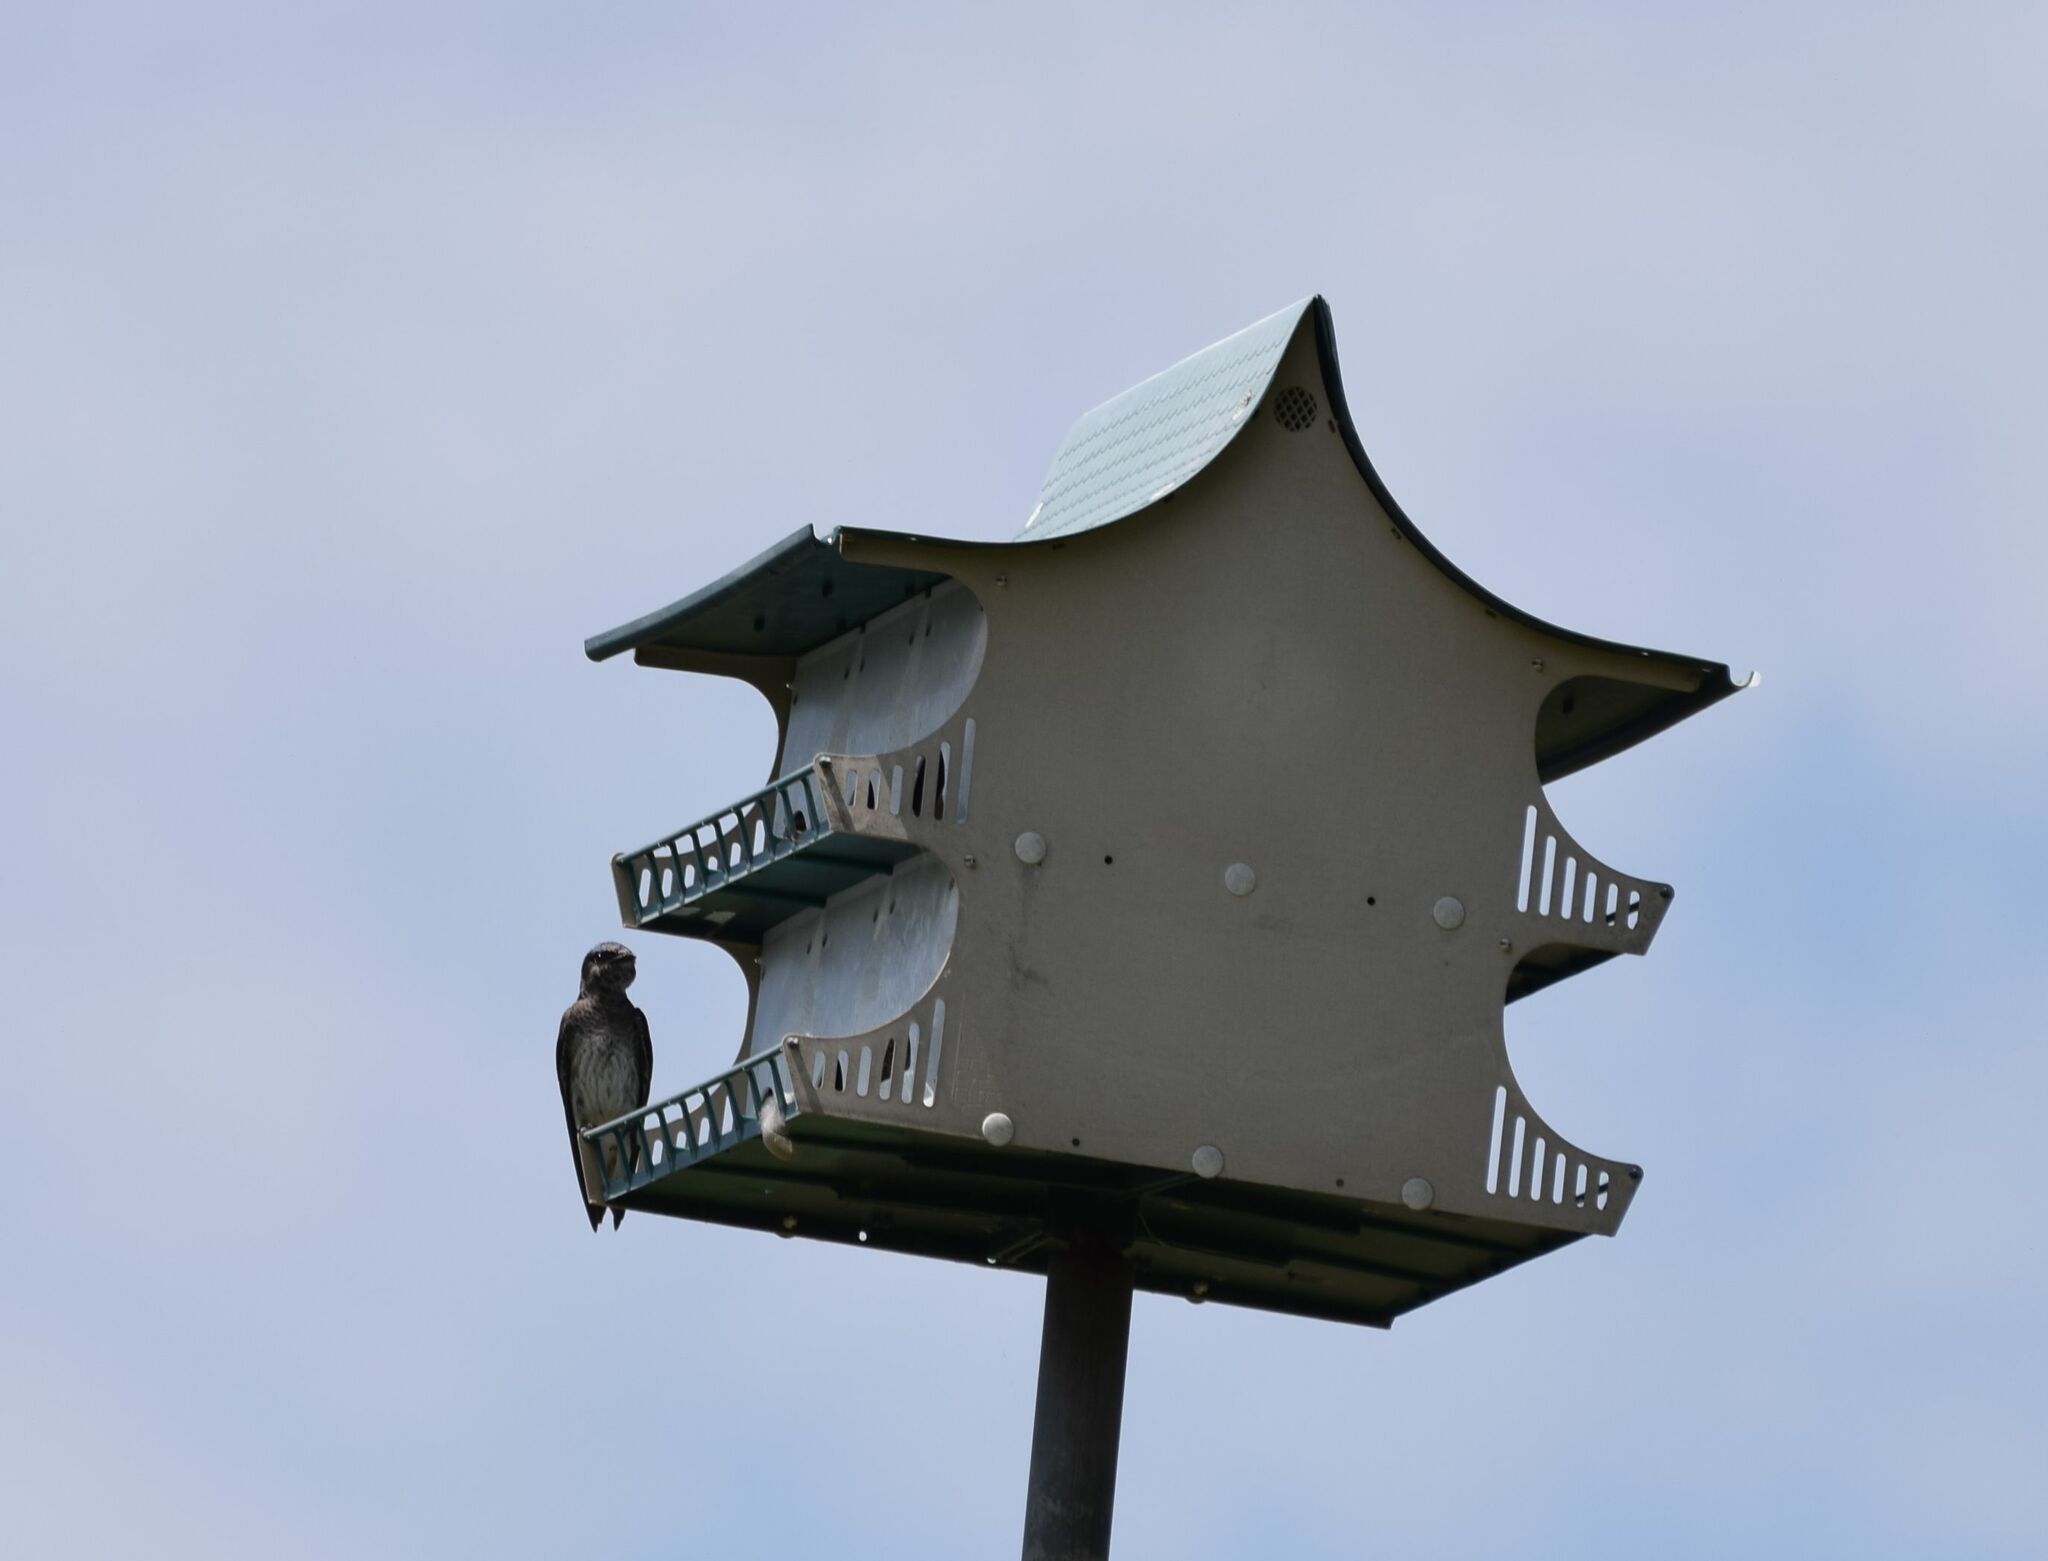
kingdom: Animalia
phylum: Chordata
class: Aves
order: Passeriformes
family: Hirundinidae
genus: Progne
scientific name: Progne subis
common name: Purple martin
